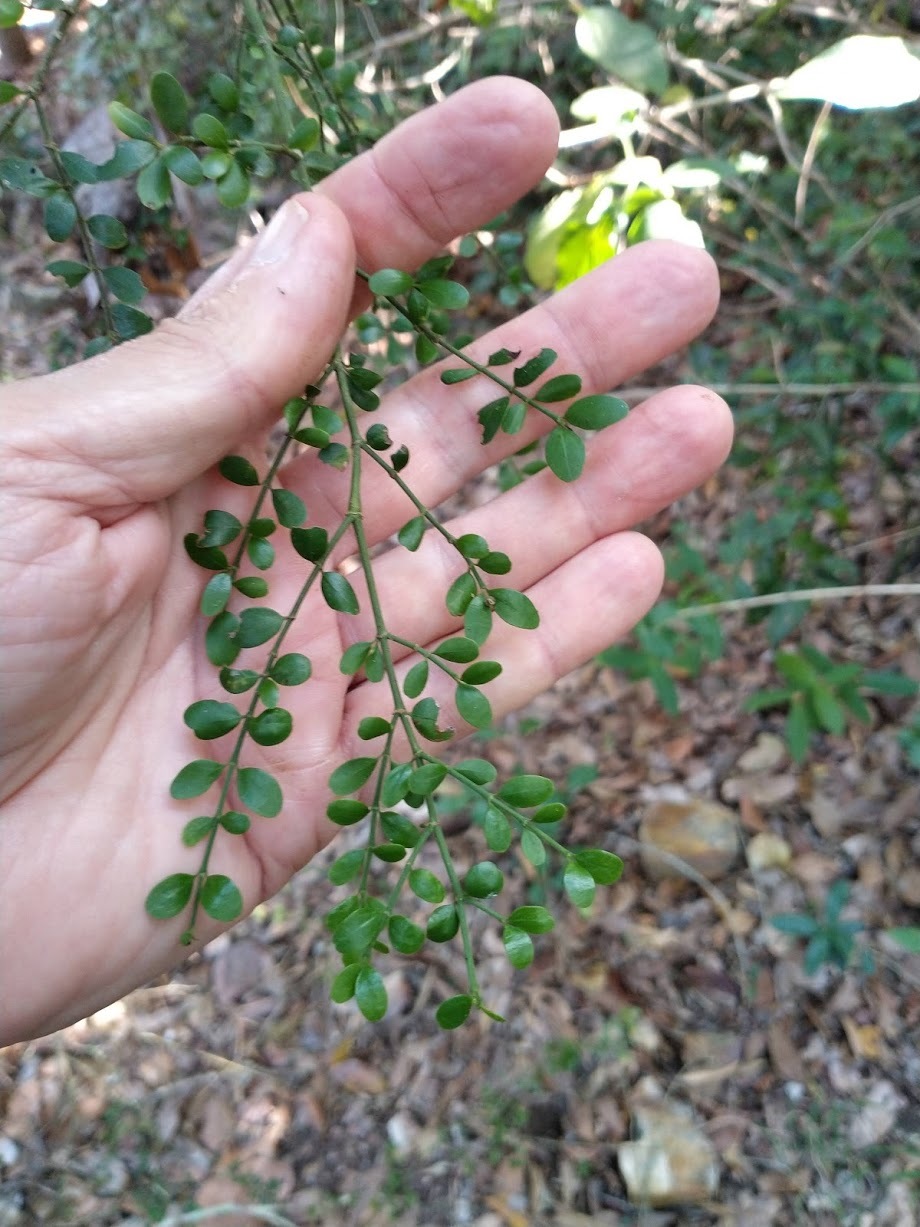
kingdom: Plantae
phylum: Tracheophyta
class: Magnoliopsida
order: Gentianales
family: Rubiaceae
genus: Everistia
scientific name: Everistia vacciniifolia
